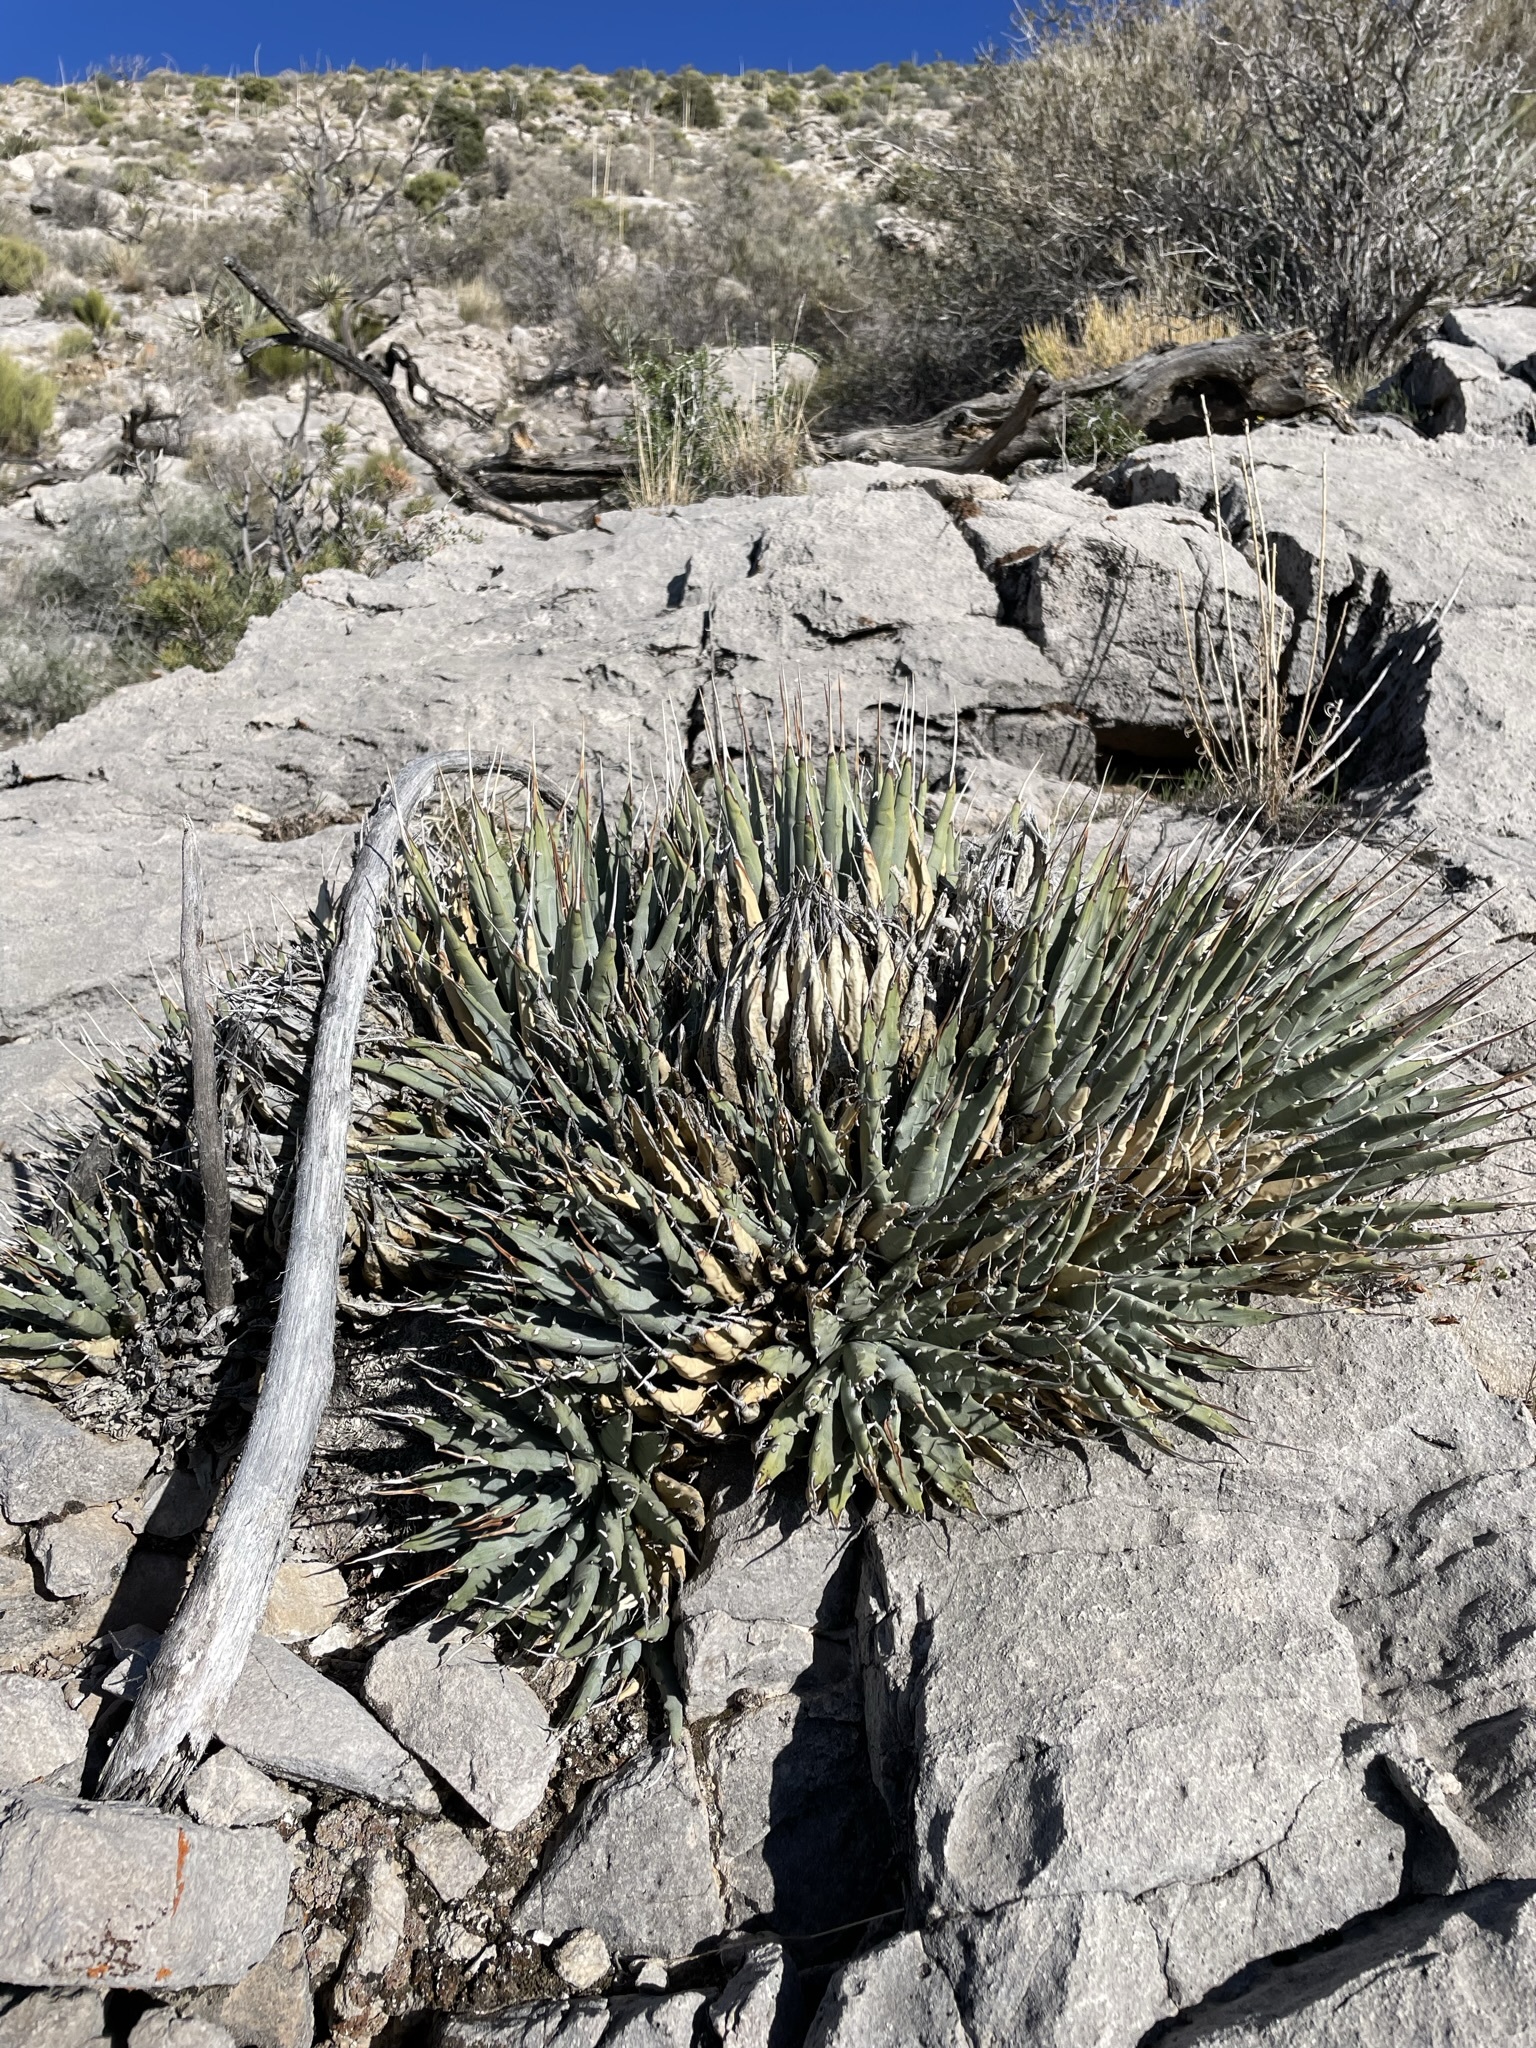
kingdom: Plantae
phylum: Tracheophyta
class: Liliopsida
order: Asparagales
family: Asparagaceae
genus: Agave
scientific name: Agave utahensis
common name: Utah agave
